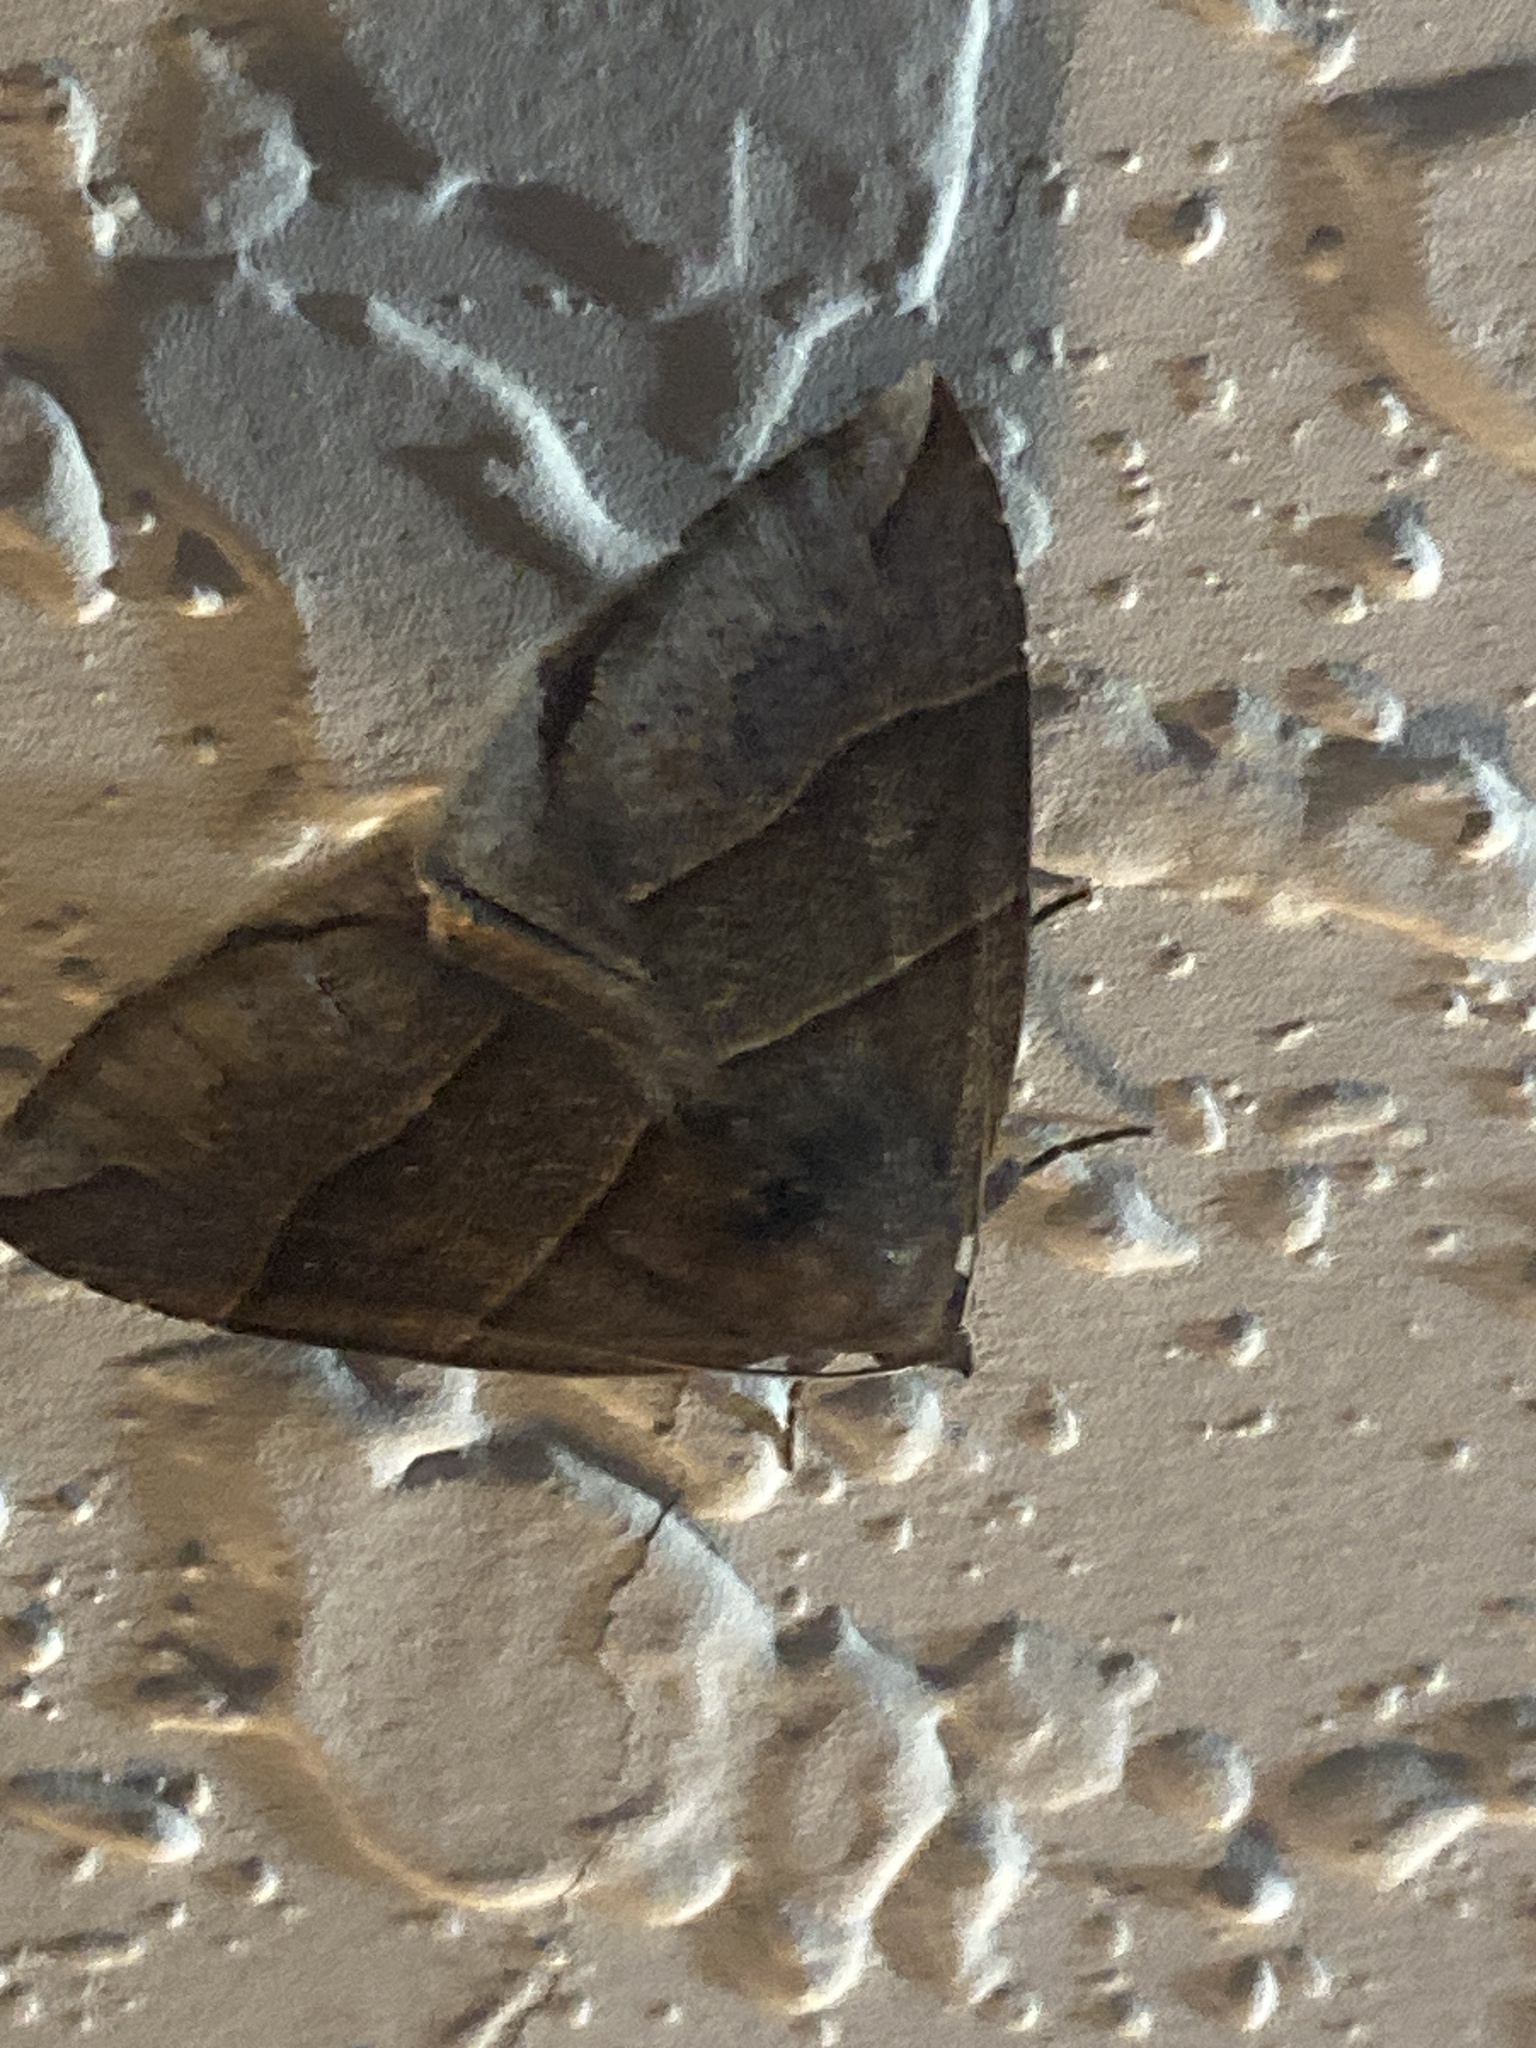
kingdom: Animalia
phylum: Arthropoda
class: Insecta
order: Lepidoptera
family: Erebidae
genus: Parallelia
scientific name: Parallelia bistriaris
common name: Maple looper moth
